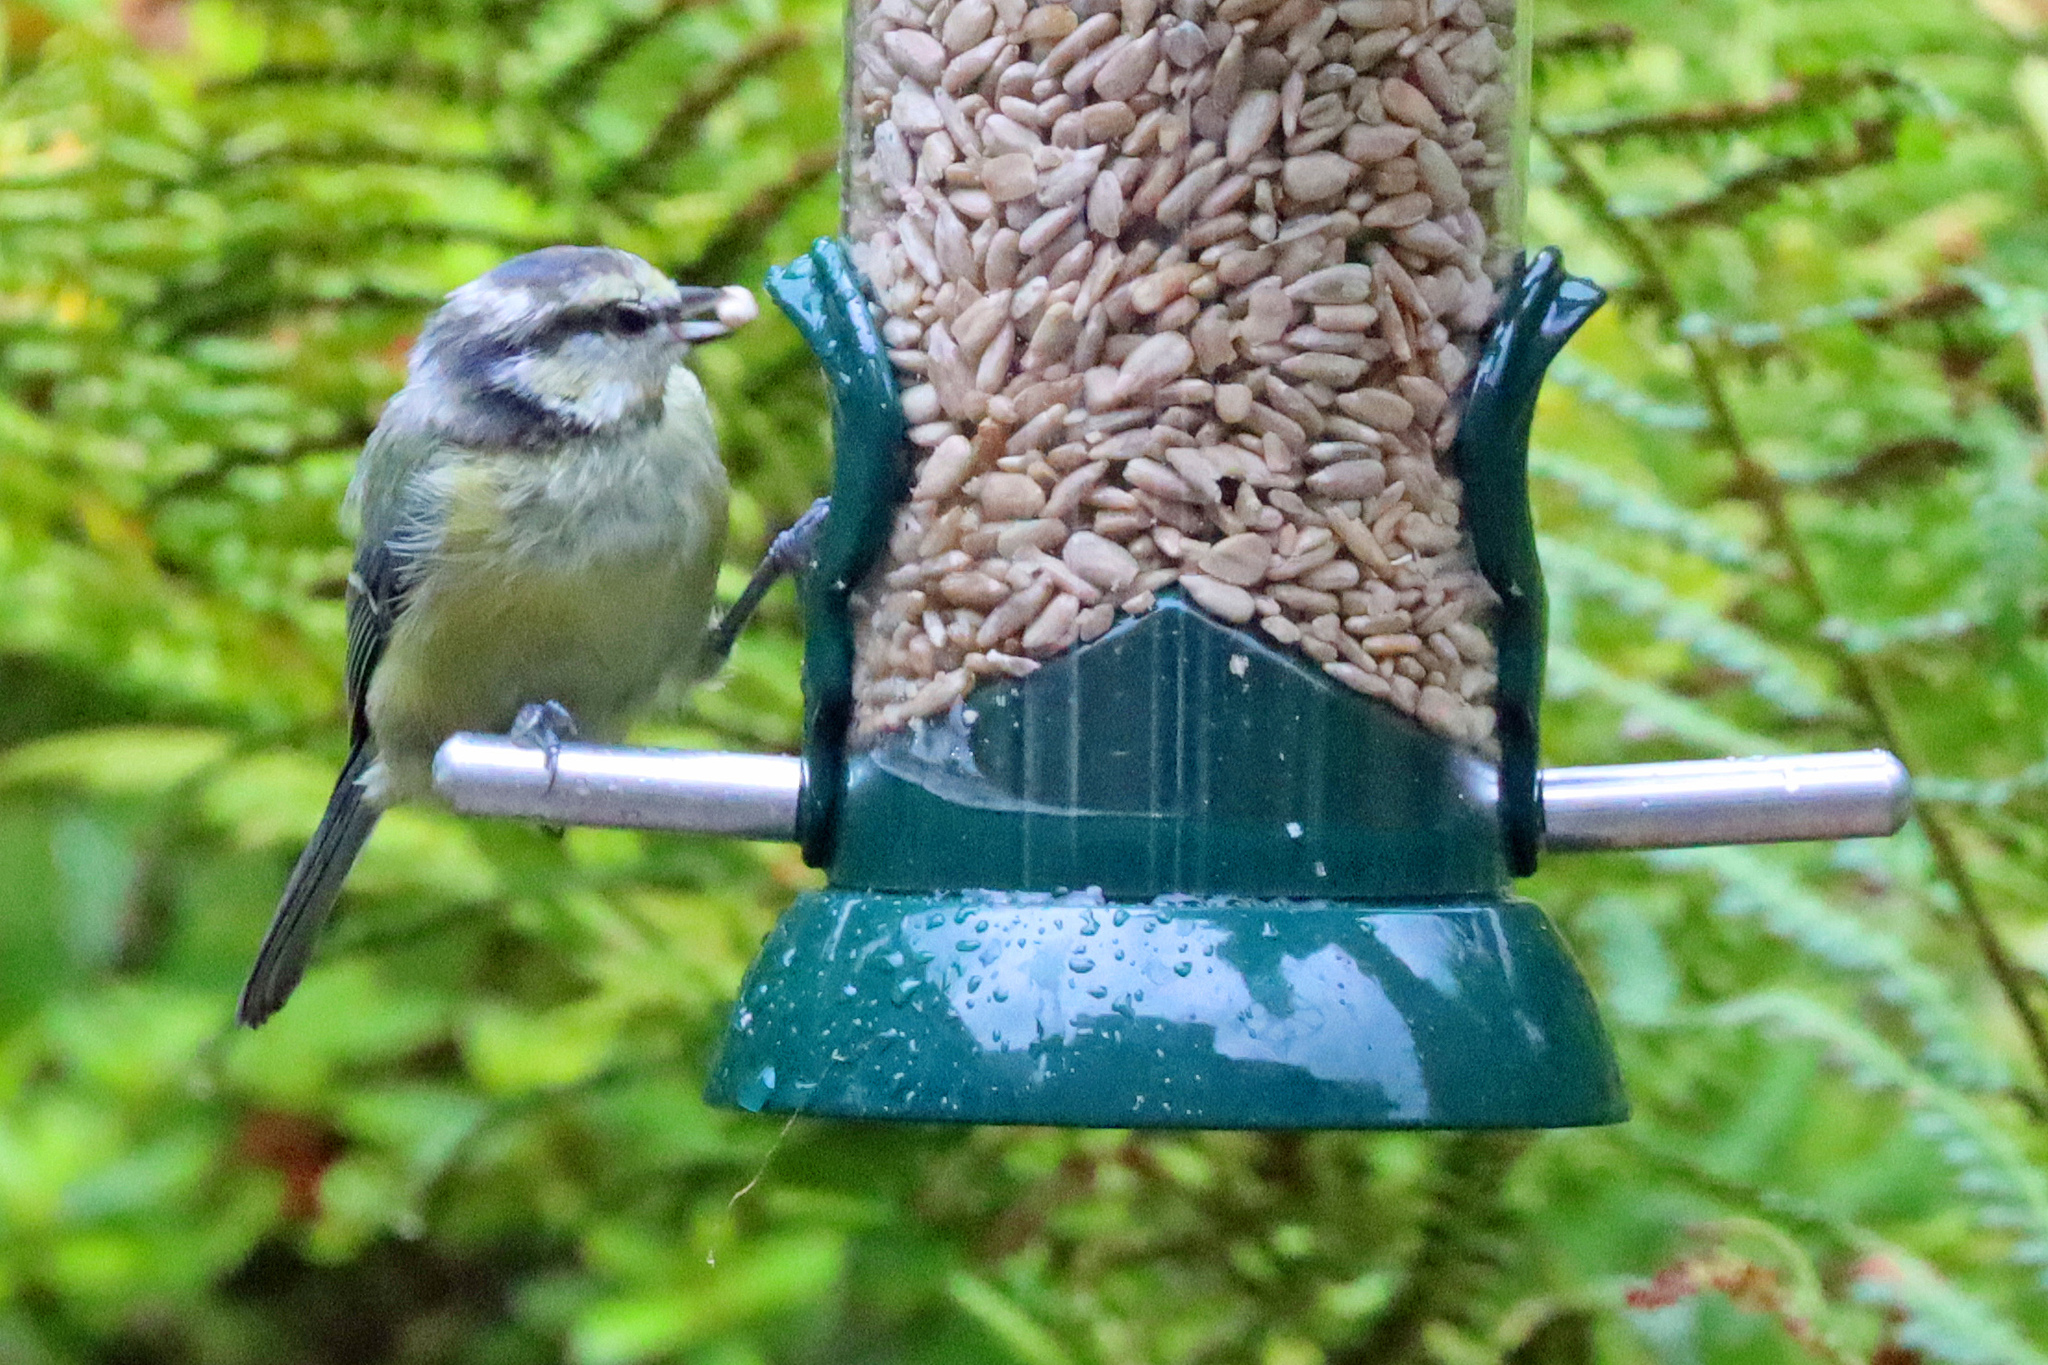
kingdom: Animalia
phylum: Chordata
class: Aves
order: Passeriformes
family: Paridae
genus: Cyanistes
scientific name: Cyanistes caeruleus
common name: Eurasian blue tit
